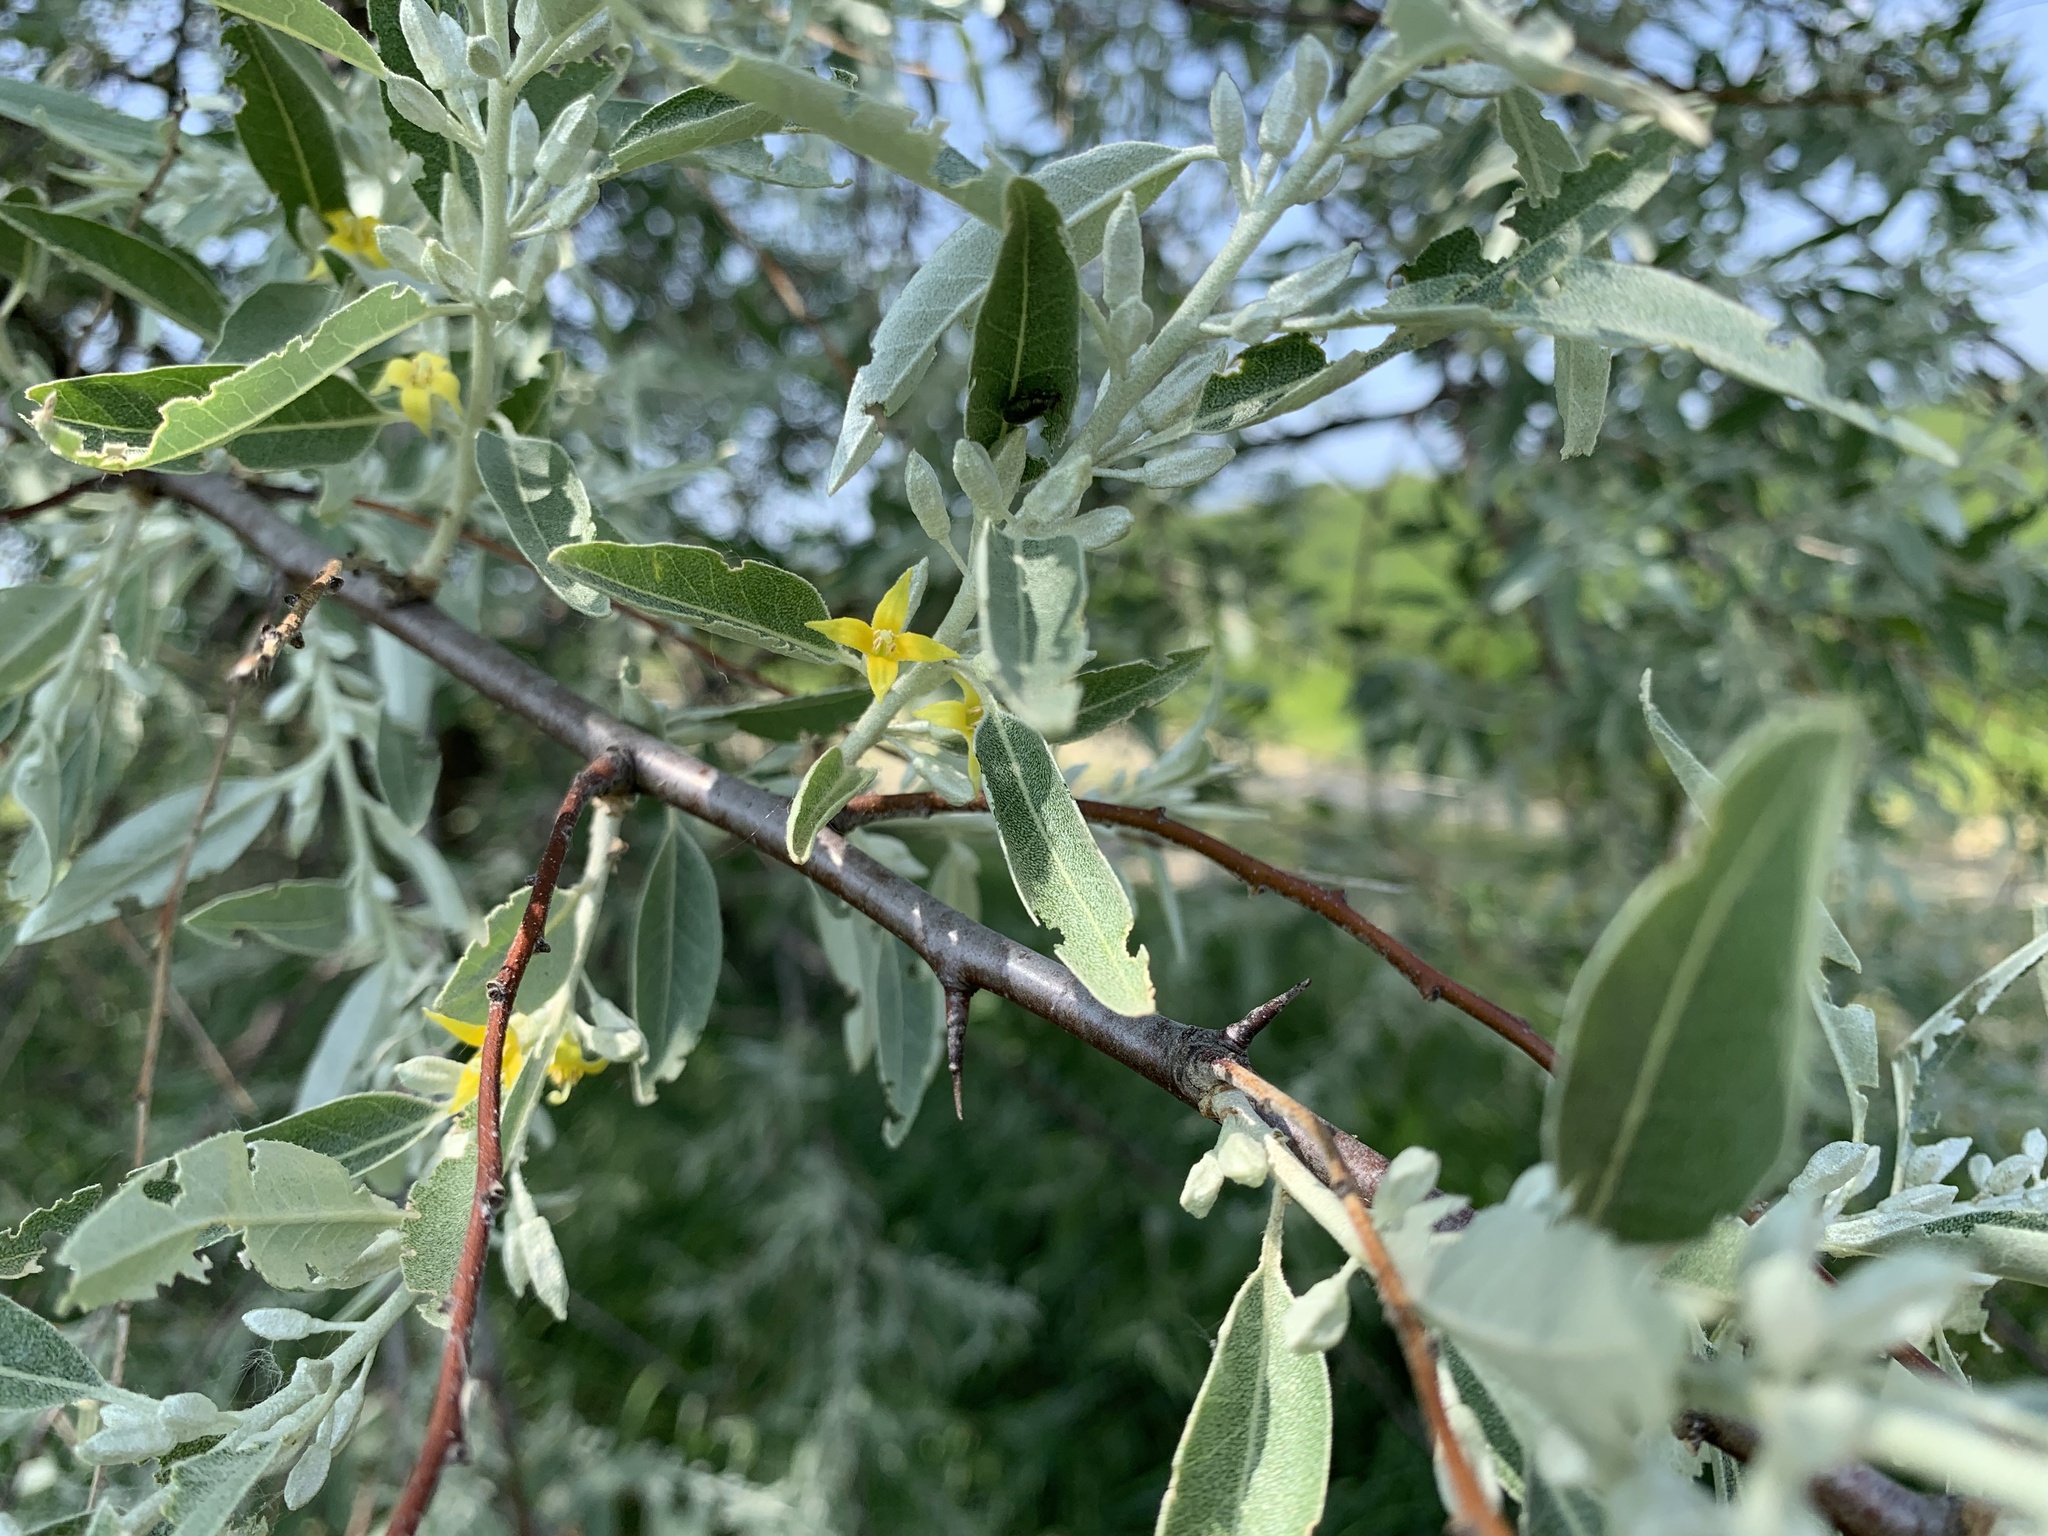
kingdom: Plantae
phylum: Tracheophyta
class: Magnoliopsida
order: Rosales
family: Elaeagnaceae
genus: Elaeagnus
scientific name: Elaeagnus angustifolia
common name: Russian olive
